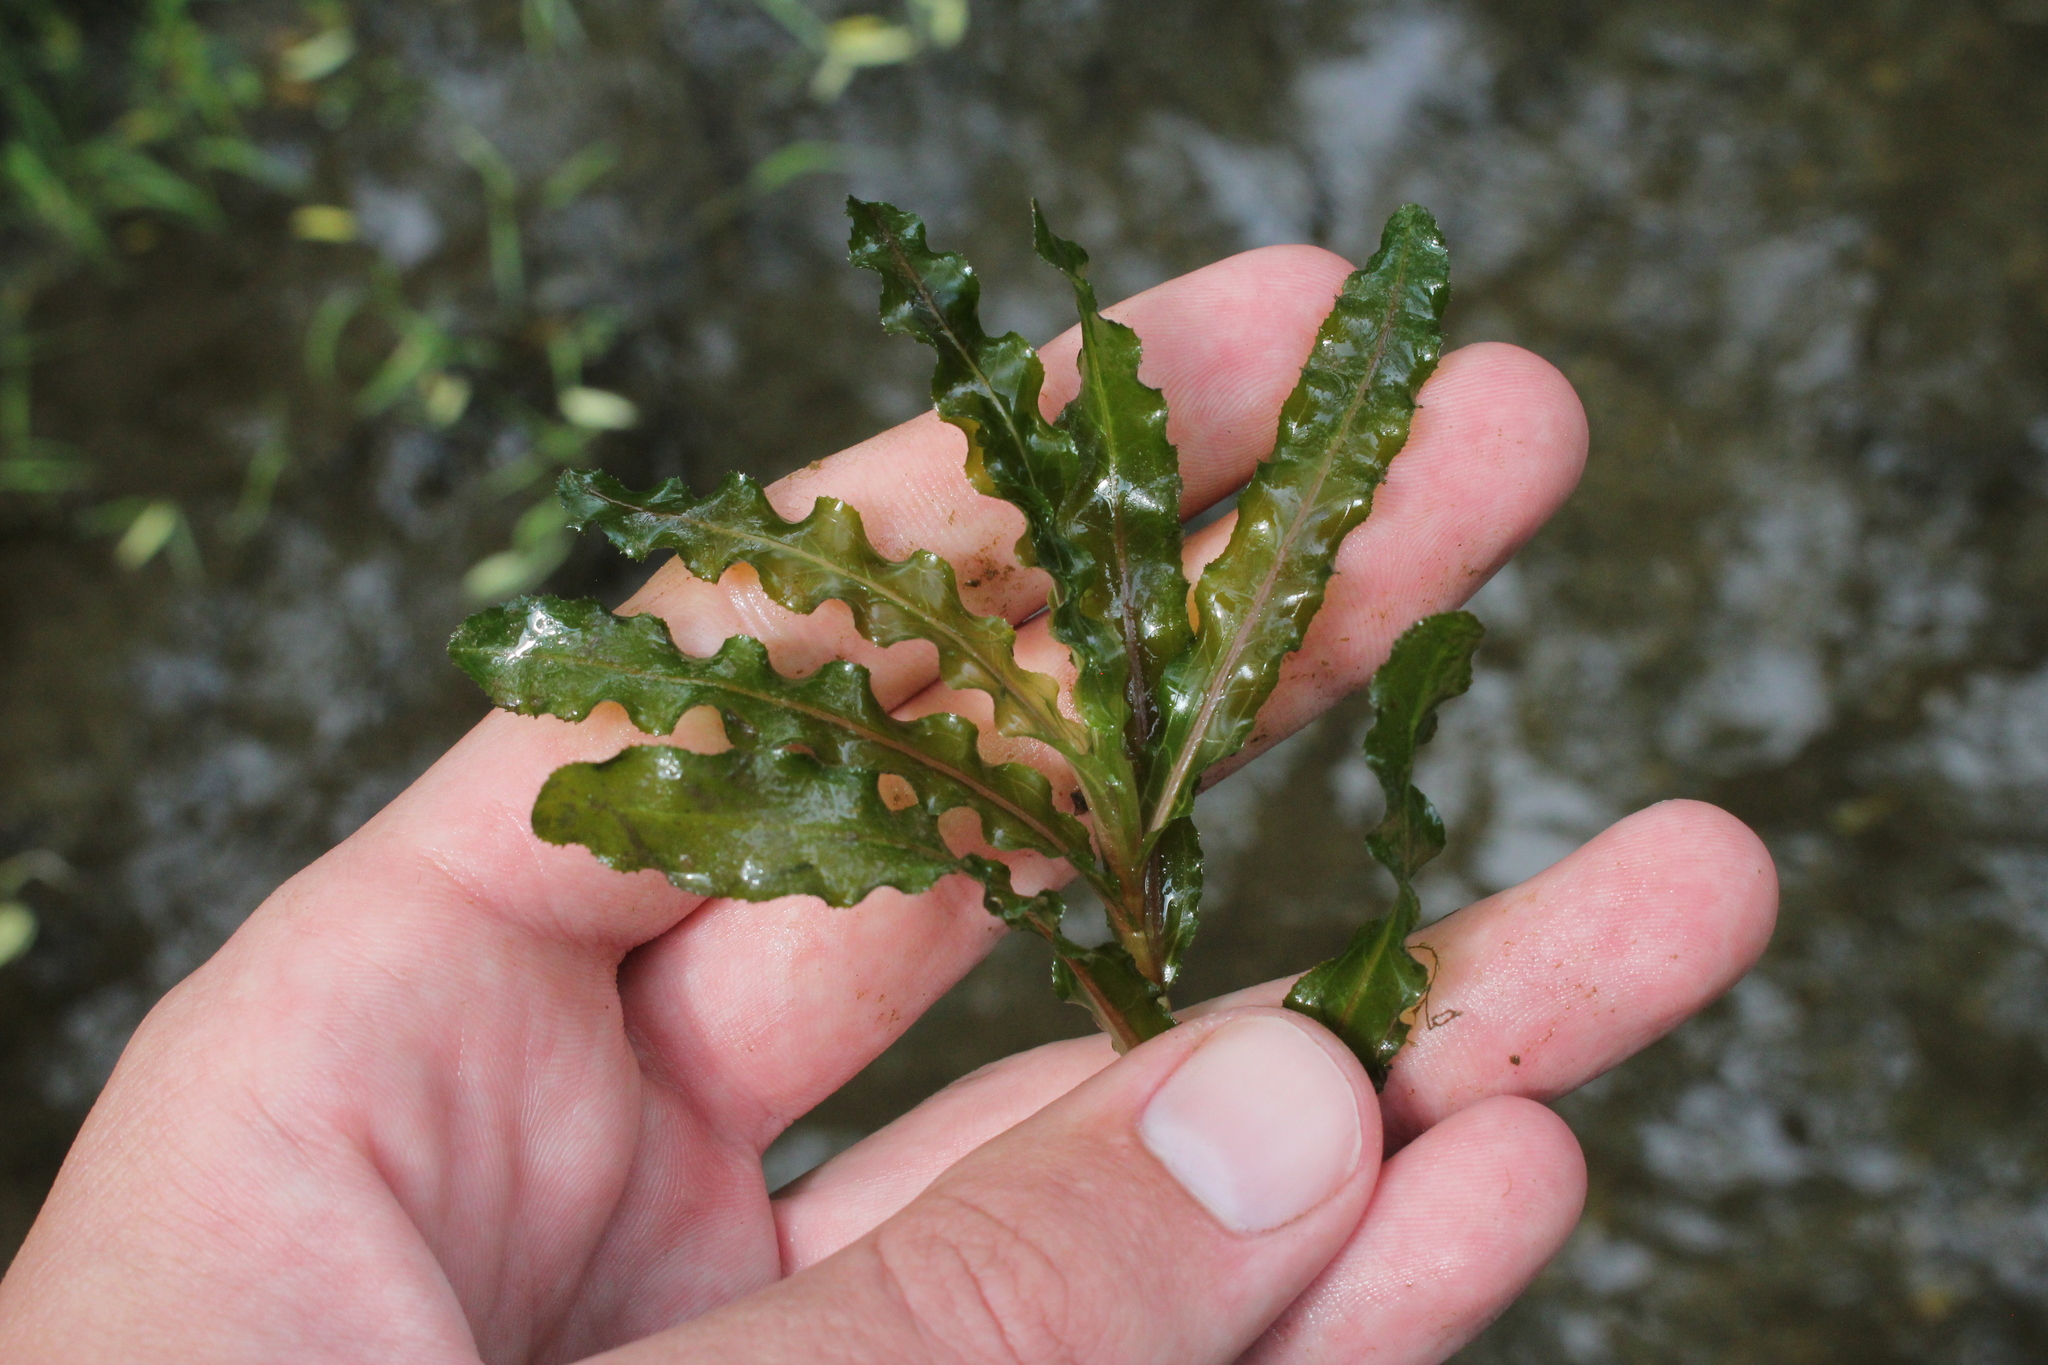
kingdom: Plantae
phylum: Tracheophyta
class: Liliopsida
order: Alismatales
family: Potamogetonaceae
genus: Potamogeton
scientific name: Potamogeton crispus
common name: Curled pondweed
